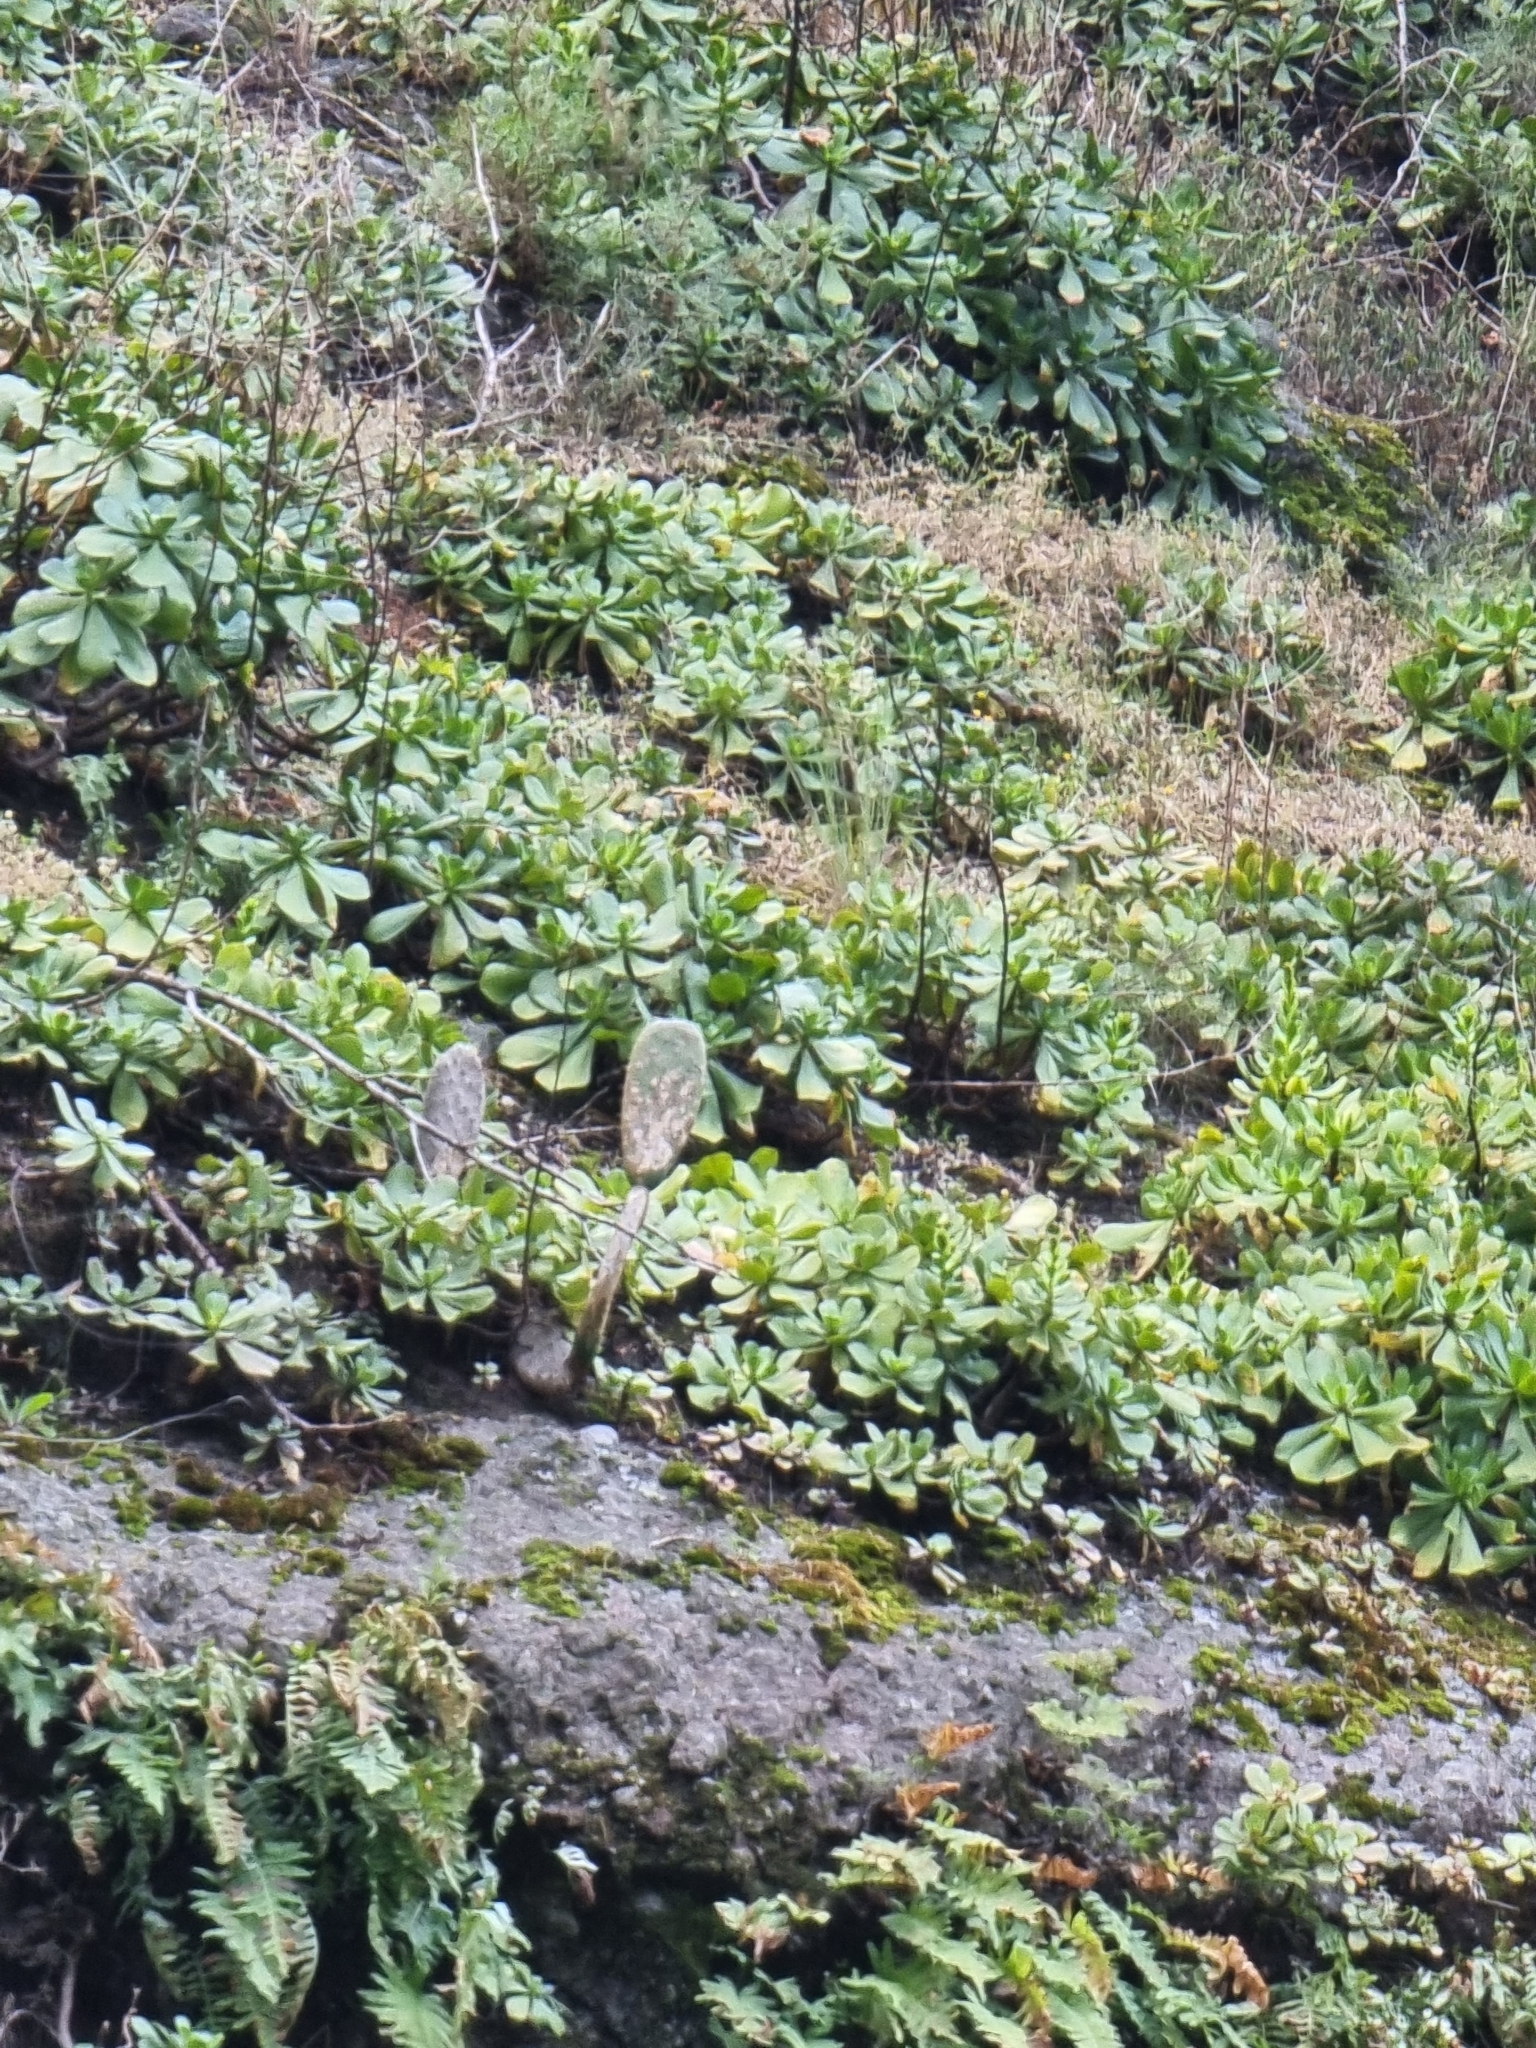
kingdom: Plantae
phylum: Tracheophyta
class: Magnoliopsida
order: Saxifragales
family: Crassulaceae
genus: Aeonium
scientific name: Aeonium glutinosum
